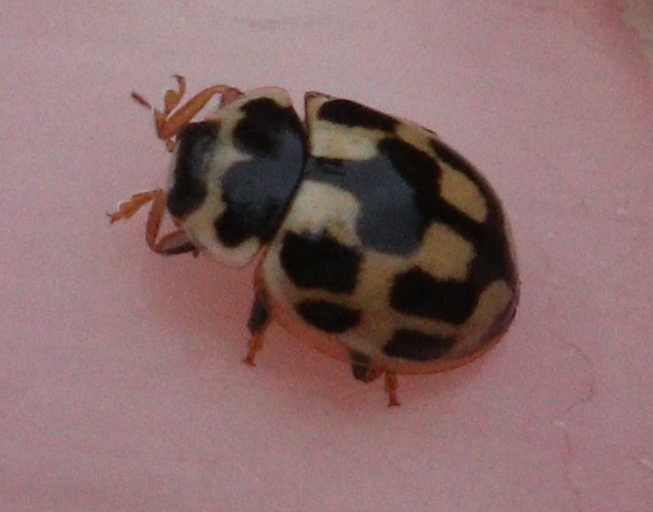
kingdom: Animalia
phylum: Arthropoda
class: Insecta
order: Coleoptera
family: Coccinellidae
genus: Propylaea
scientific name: Propylaea quatuordecimpunctata
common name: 14-spotted ladybird beetle
